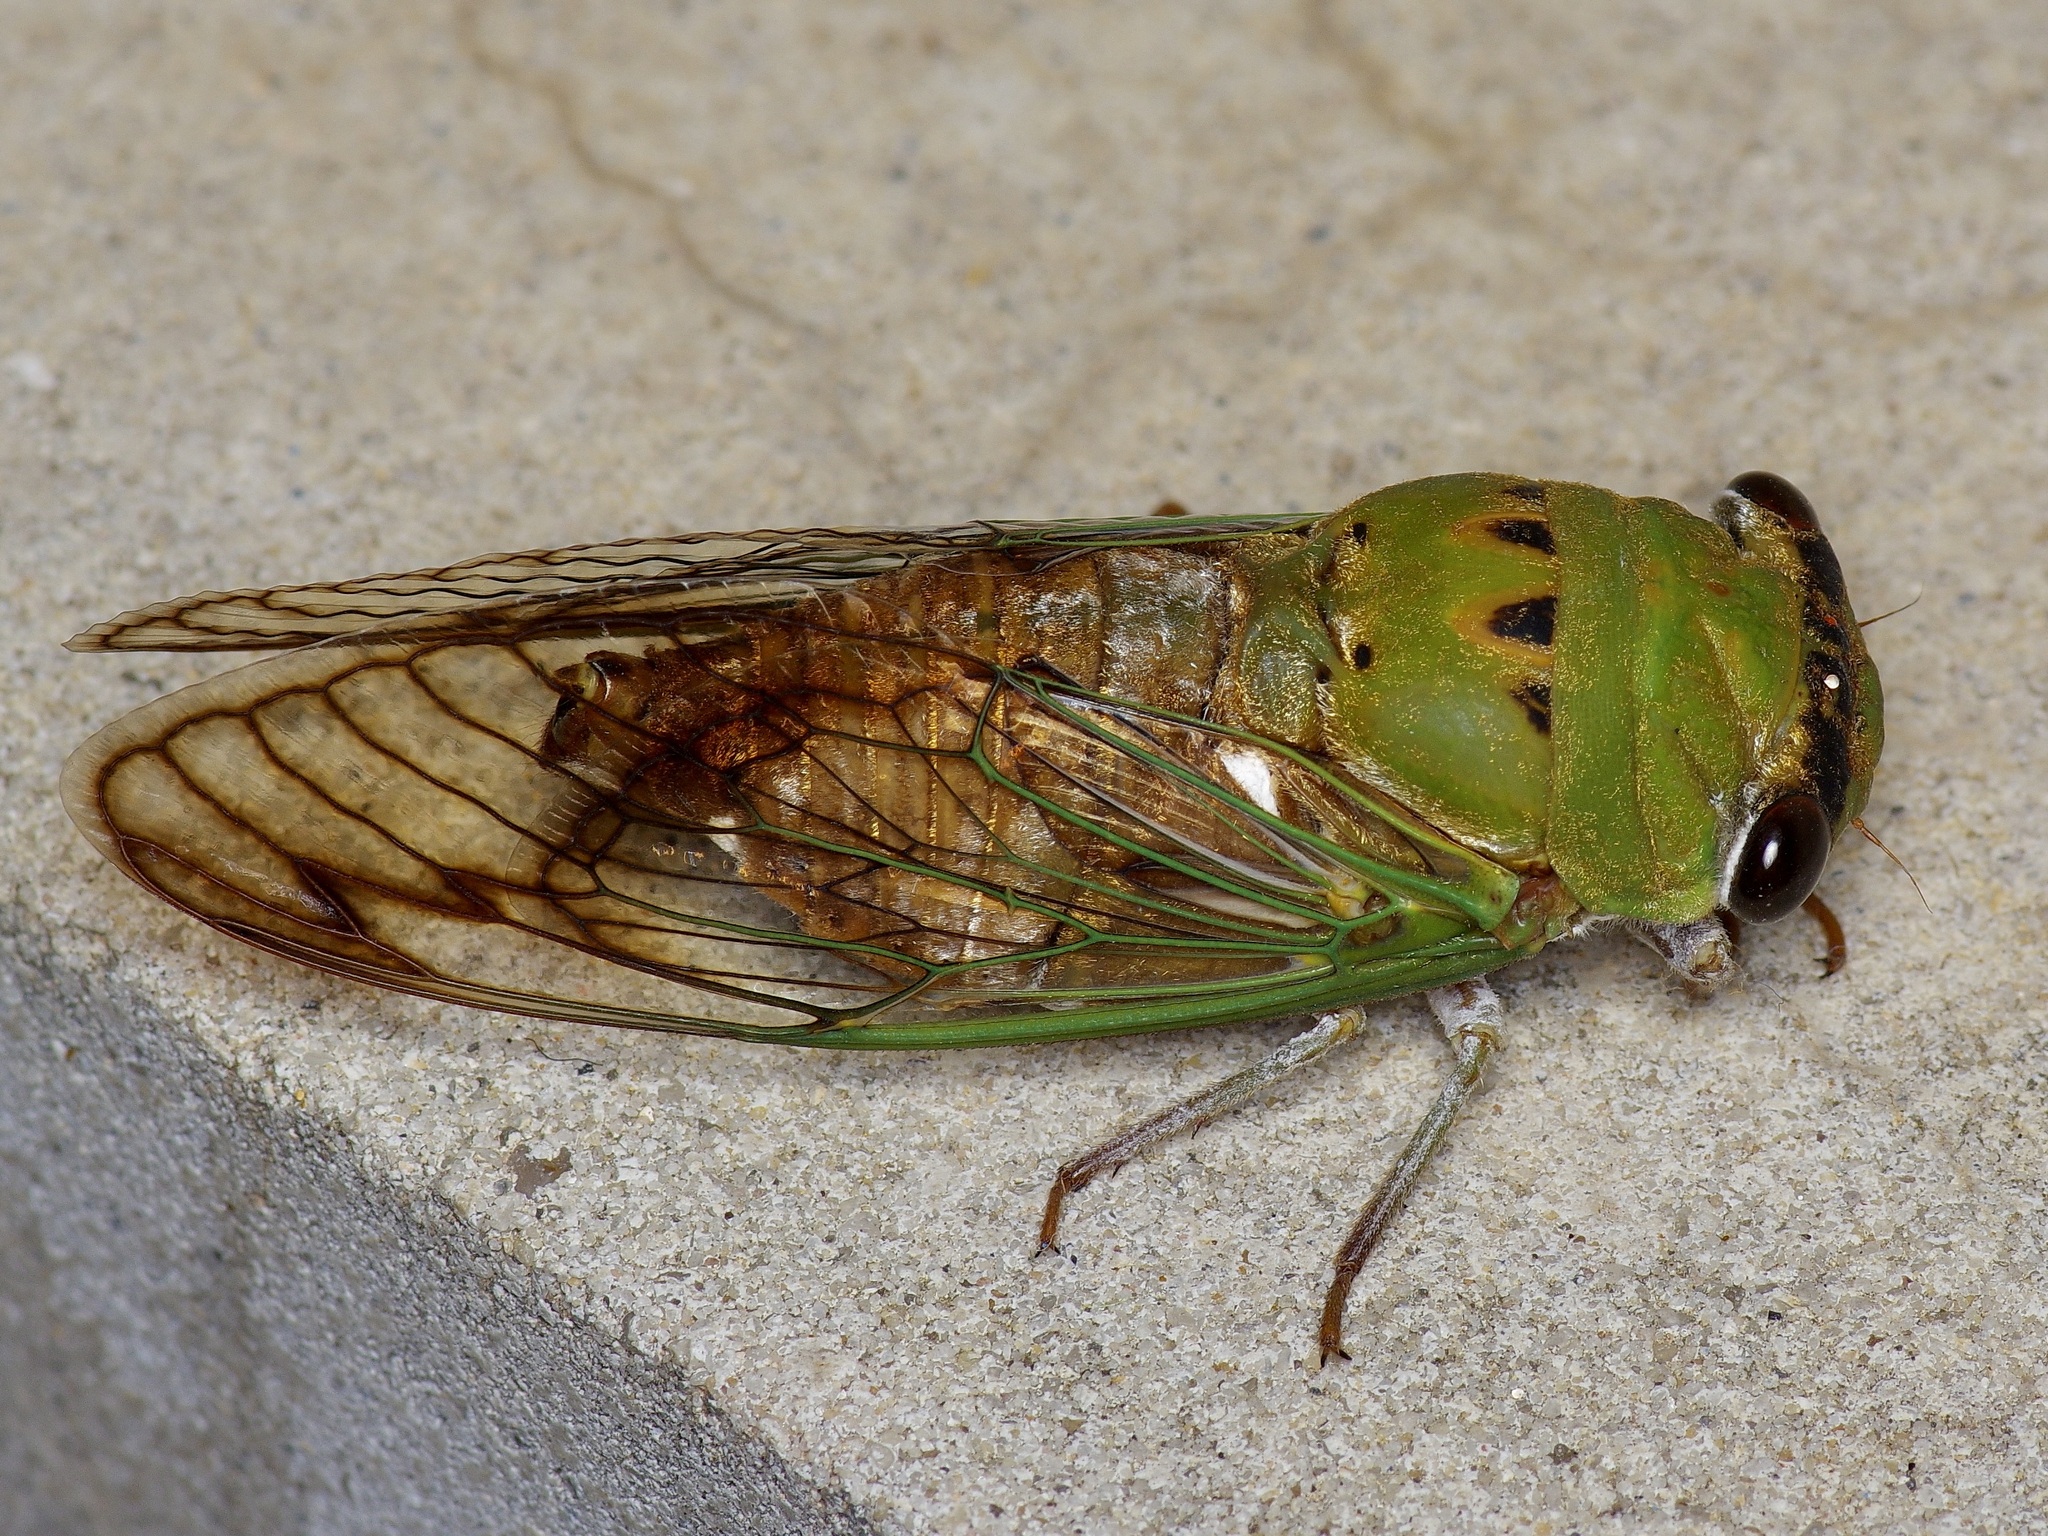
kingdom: Animalia
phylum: Arthropoda
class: Insecta
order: Hemiptera
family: Cicadidae
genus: Neotibicen
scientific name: Neotibicen superbus
